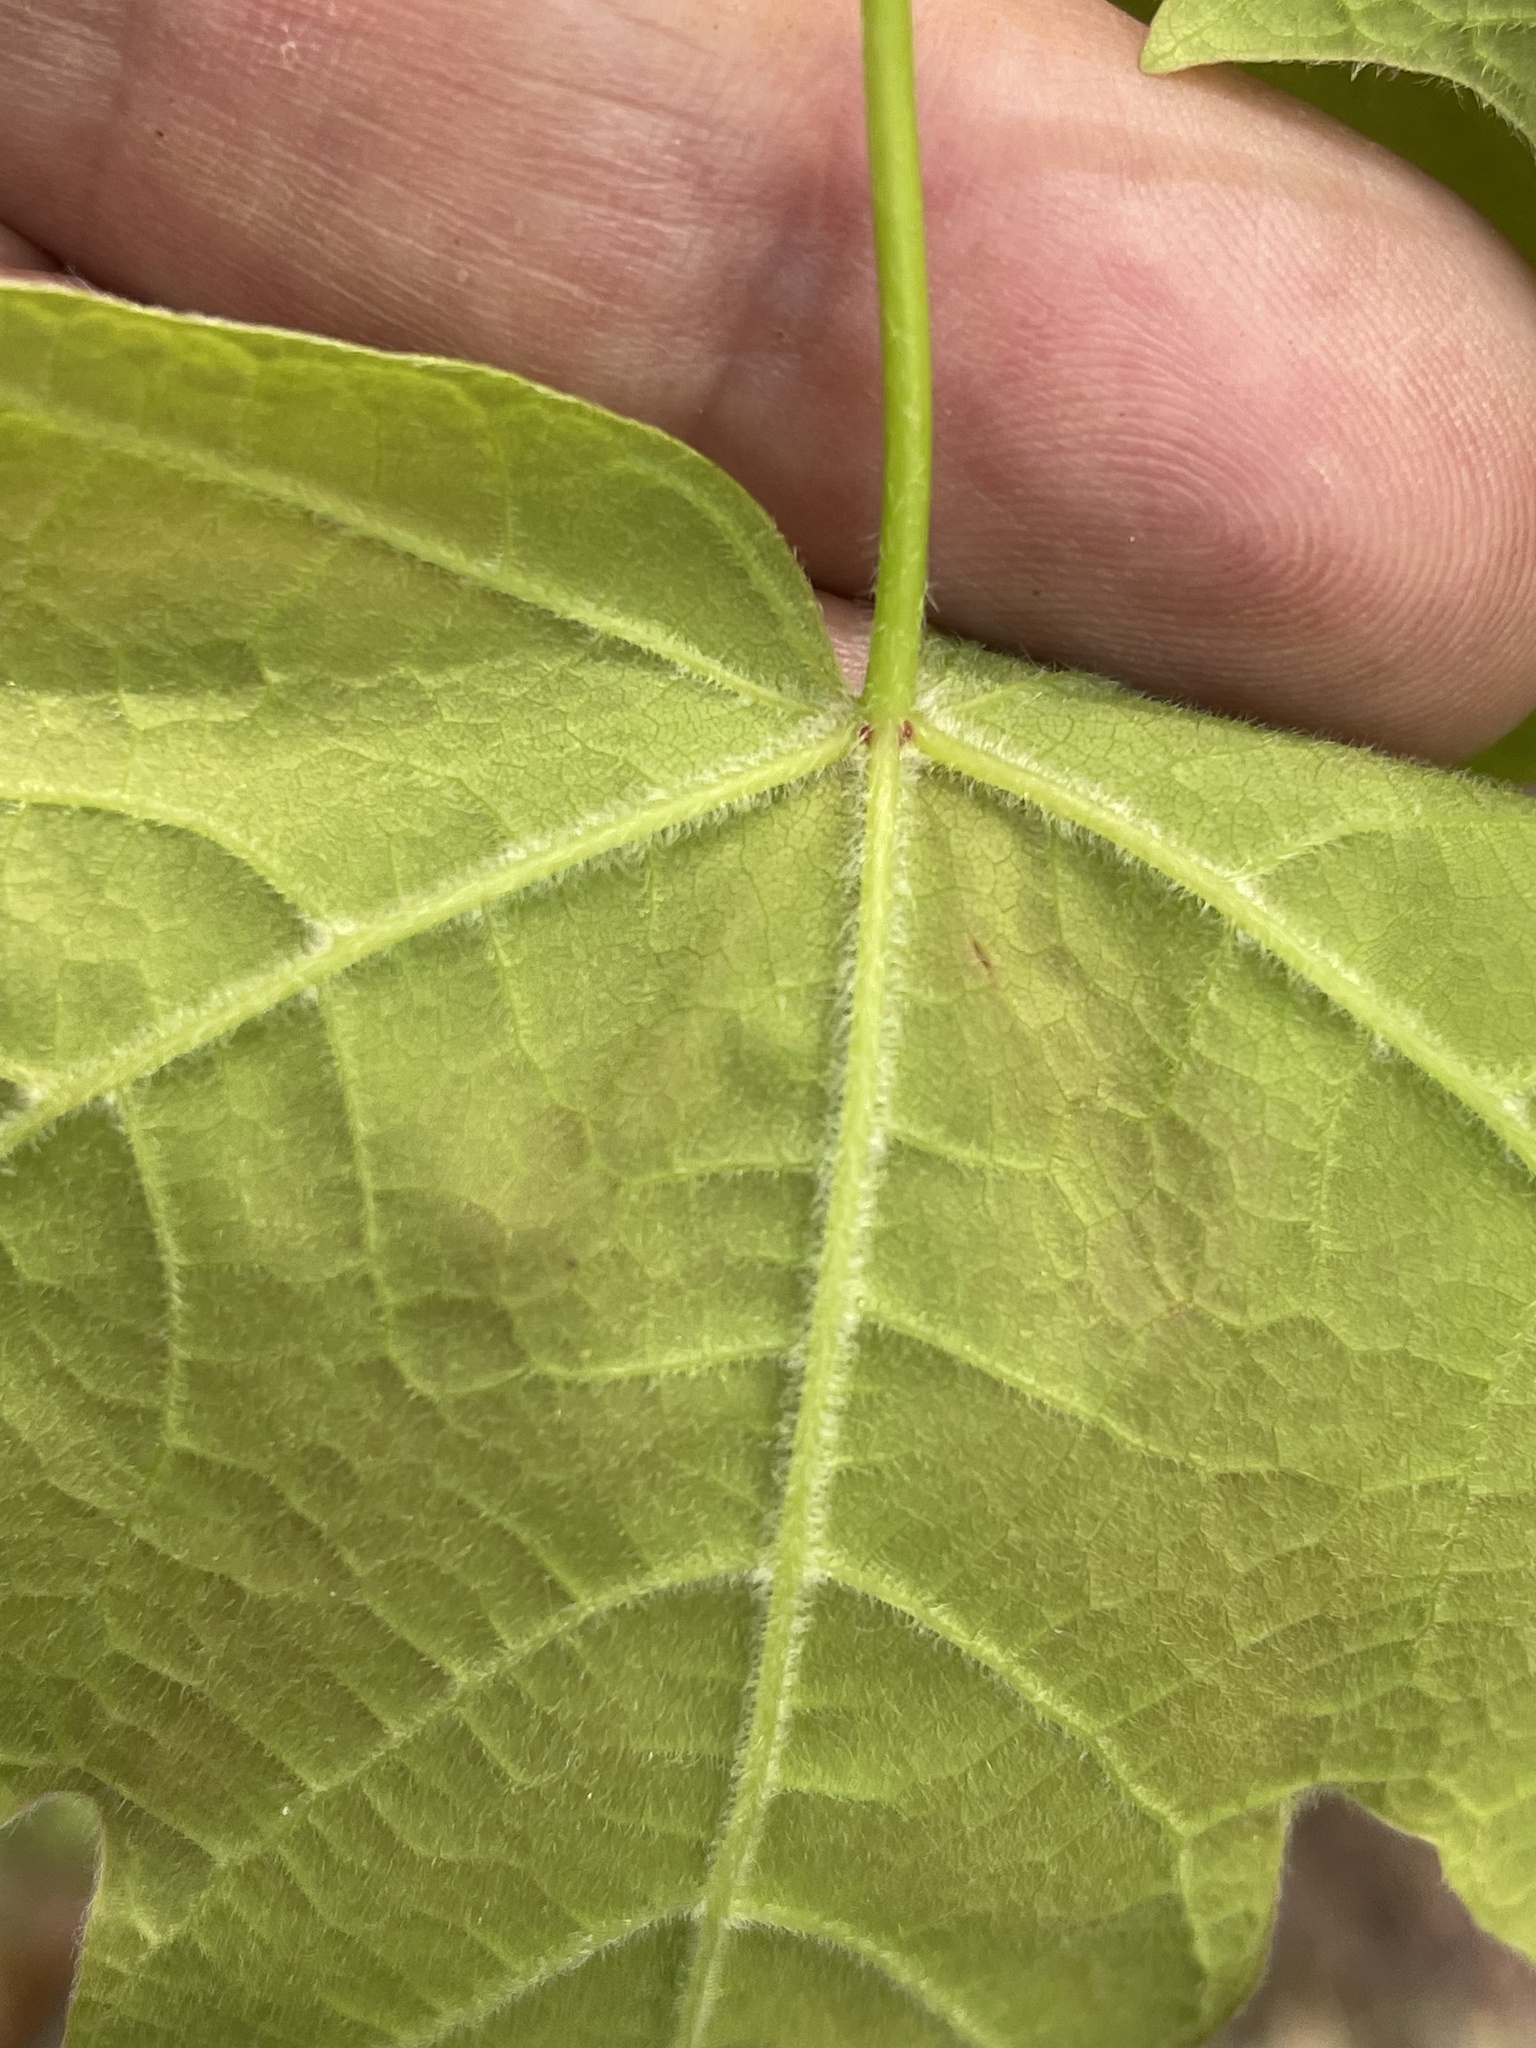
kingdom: Plantae
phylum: Tracheophyta
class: Magnoliopsida
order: Sapindales
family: Sapindaceae
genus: Acer
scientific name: Acer saccharum
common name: Sugar maple
